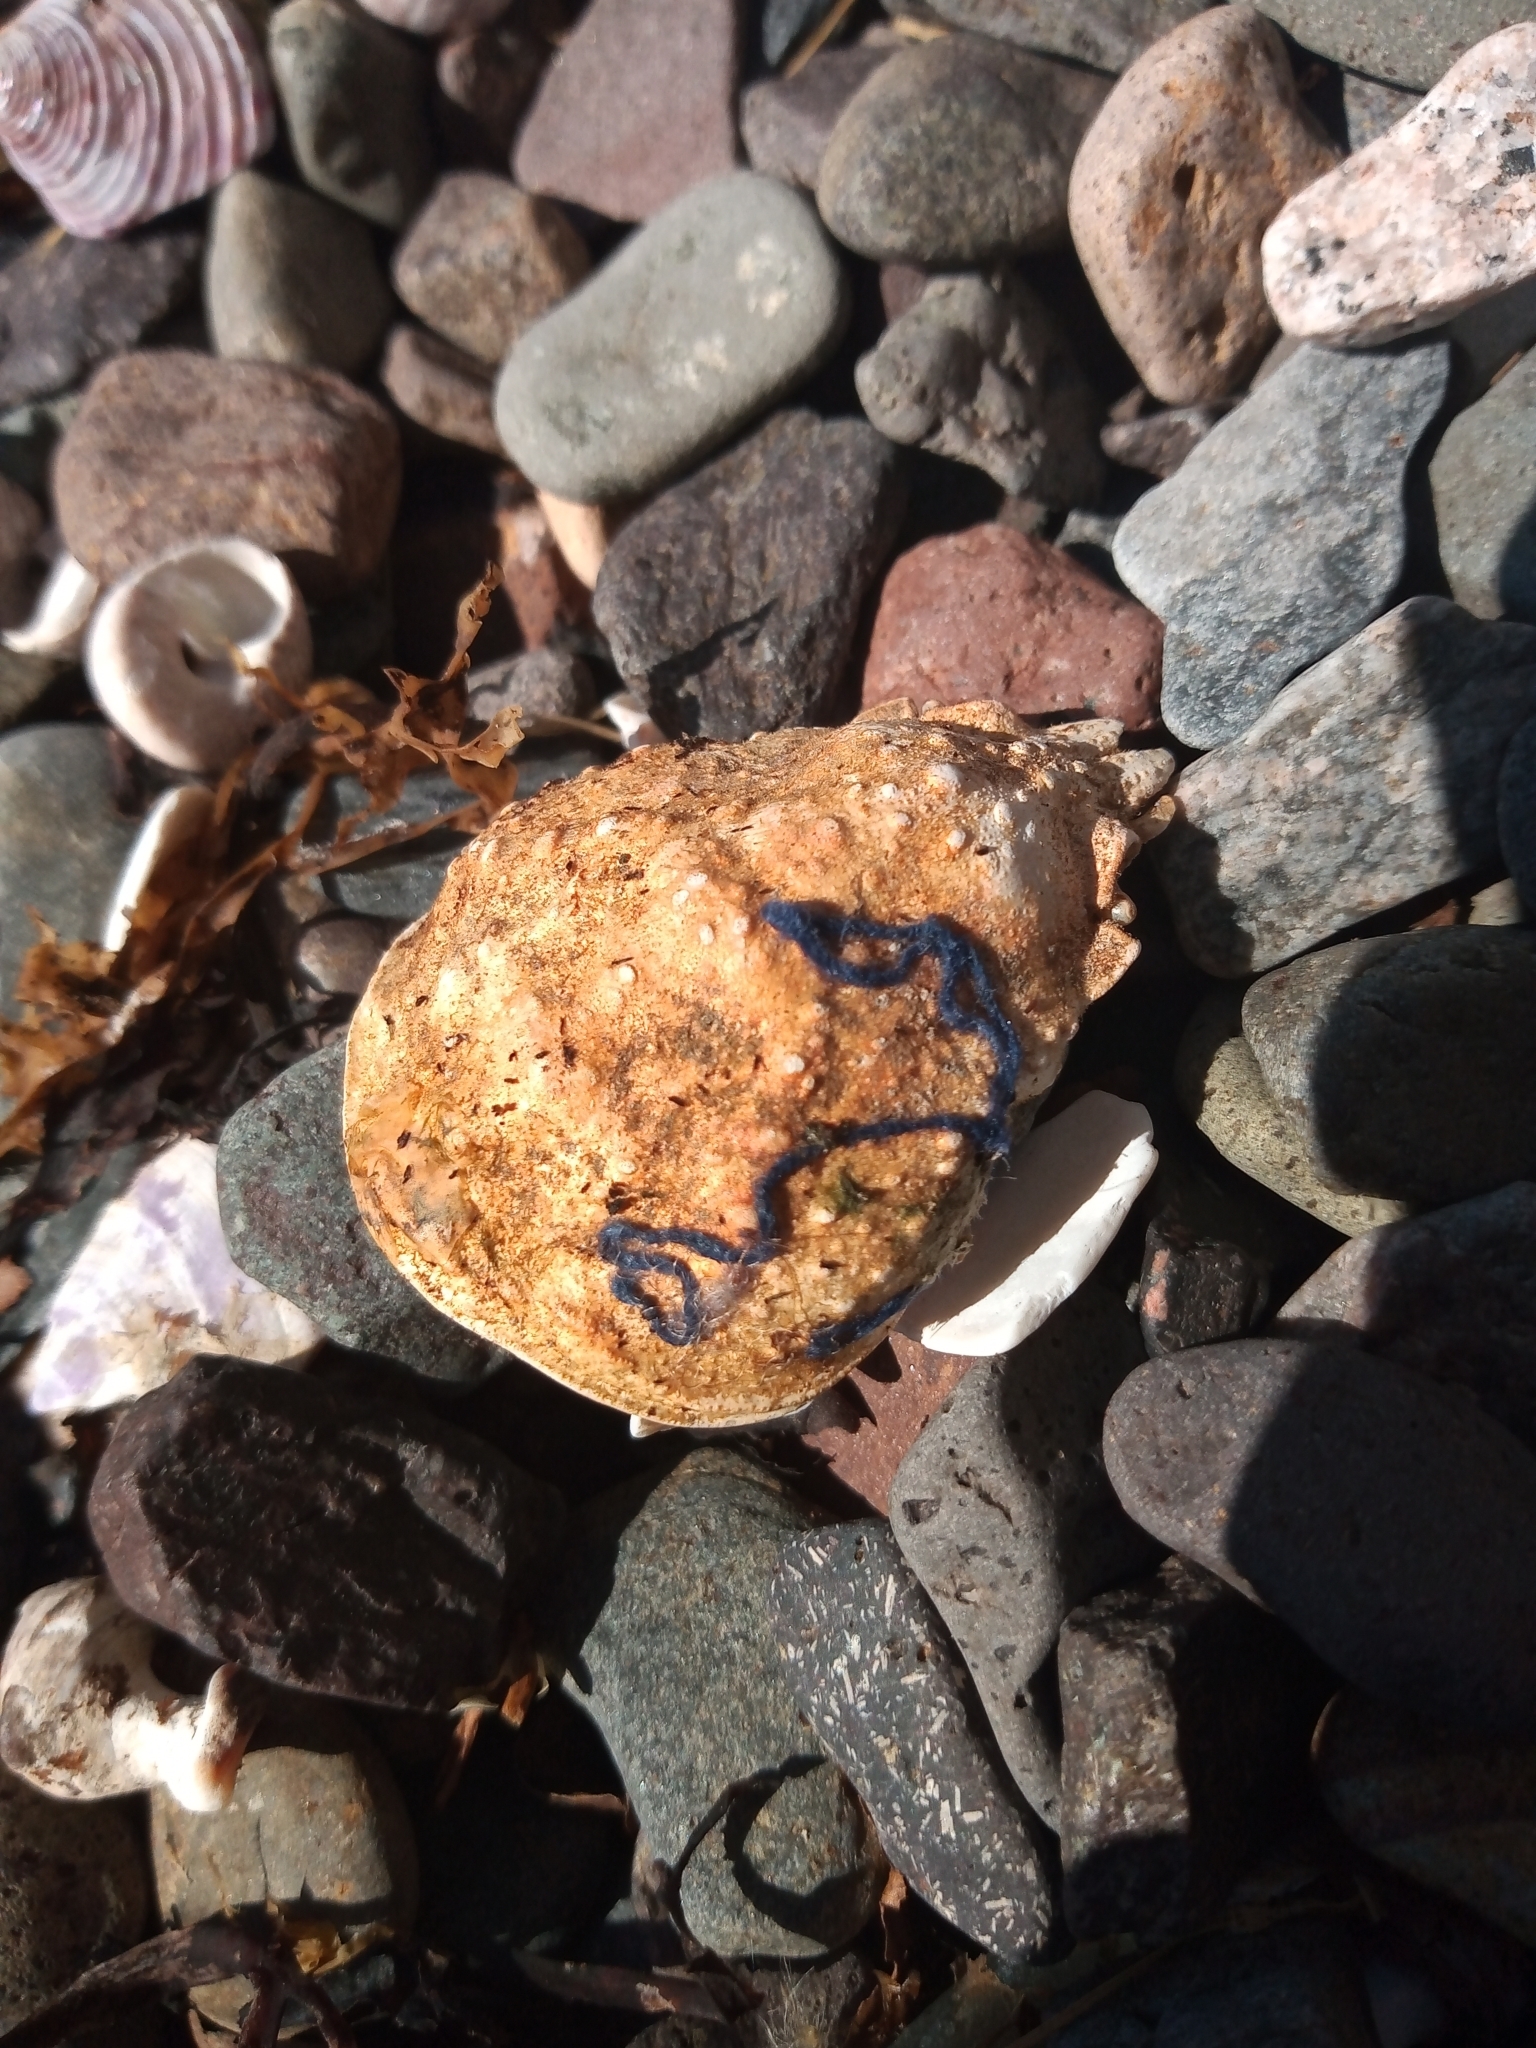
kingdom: Animalia
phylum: Arthropoda
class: Malacostraca
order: Decapoda
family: Oregoniidae
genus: Hyas
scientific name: Hyas araneus
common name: Great spider crab
